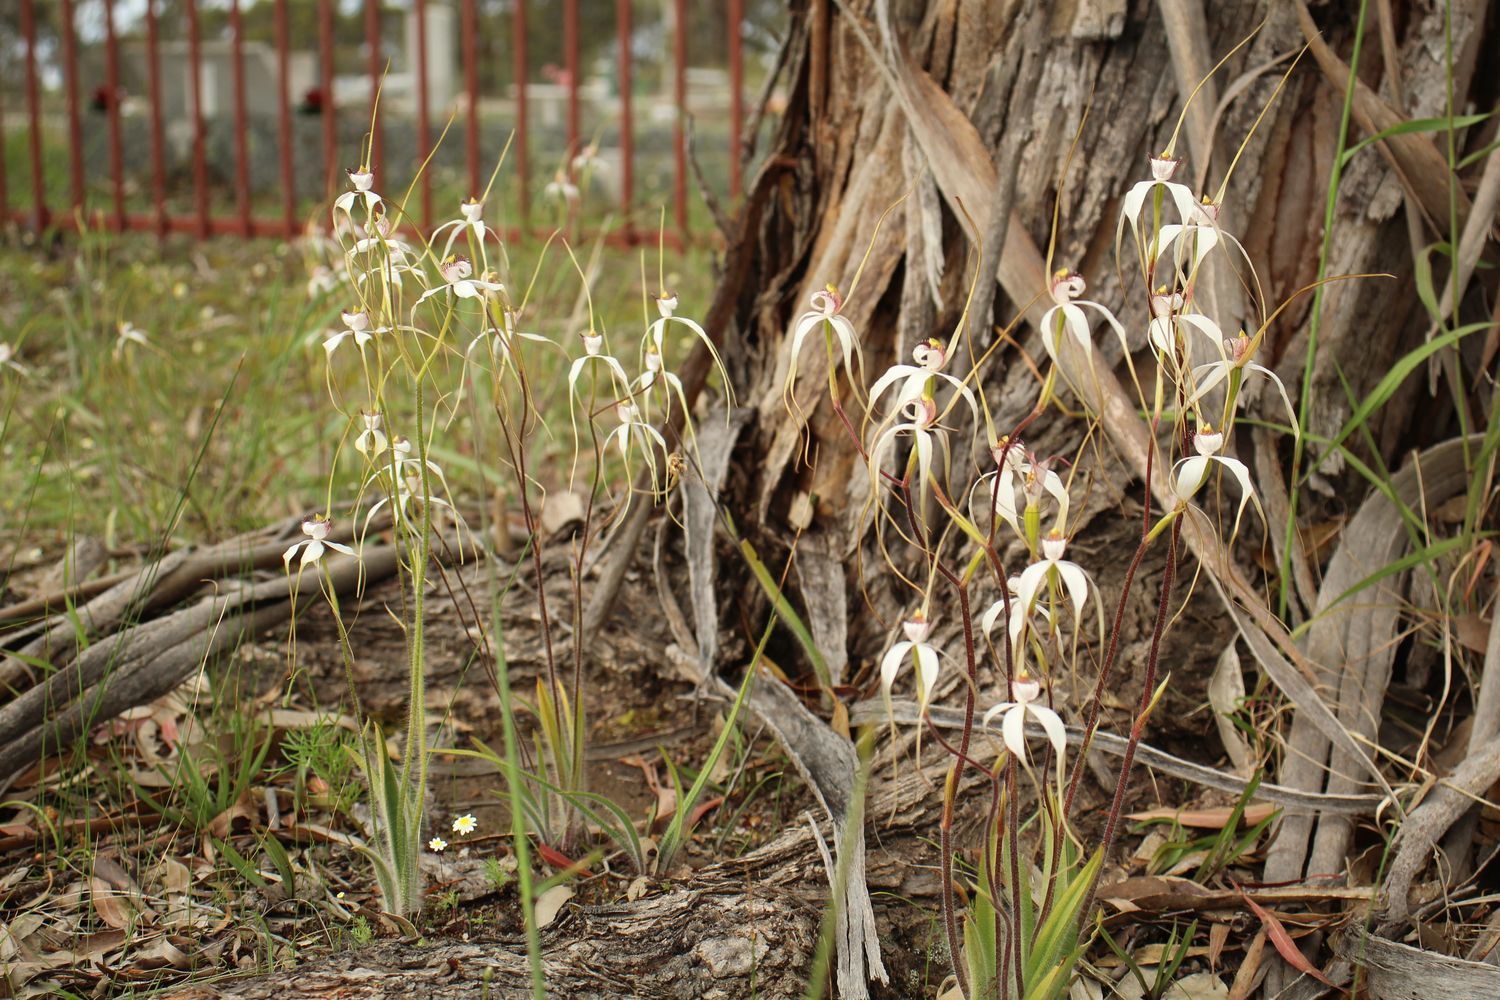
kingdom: Plantae
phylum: Tracheophyta
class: Liliopsida
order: Asparagales
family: Orchidaceae
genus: Caladenia
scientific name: Caladenia longicauda
